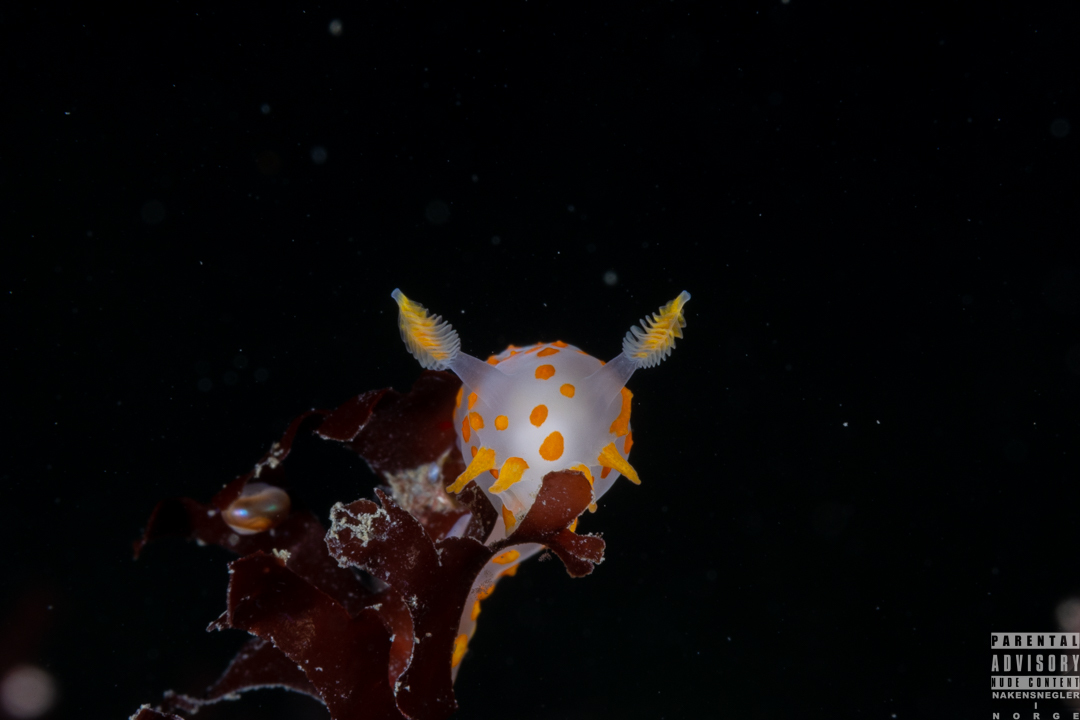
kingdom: Animalia
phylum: Mollusca
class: Gastropoda
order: Nudibranchia
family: Polyceridae
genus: Polycera
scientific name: Polycera quadrilineata
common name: Four-striped polycera
